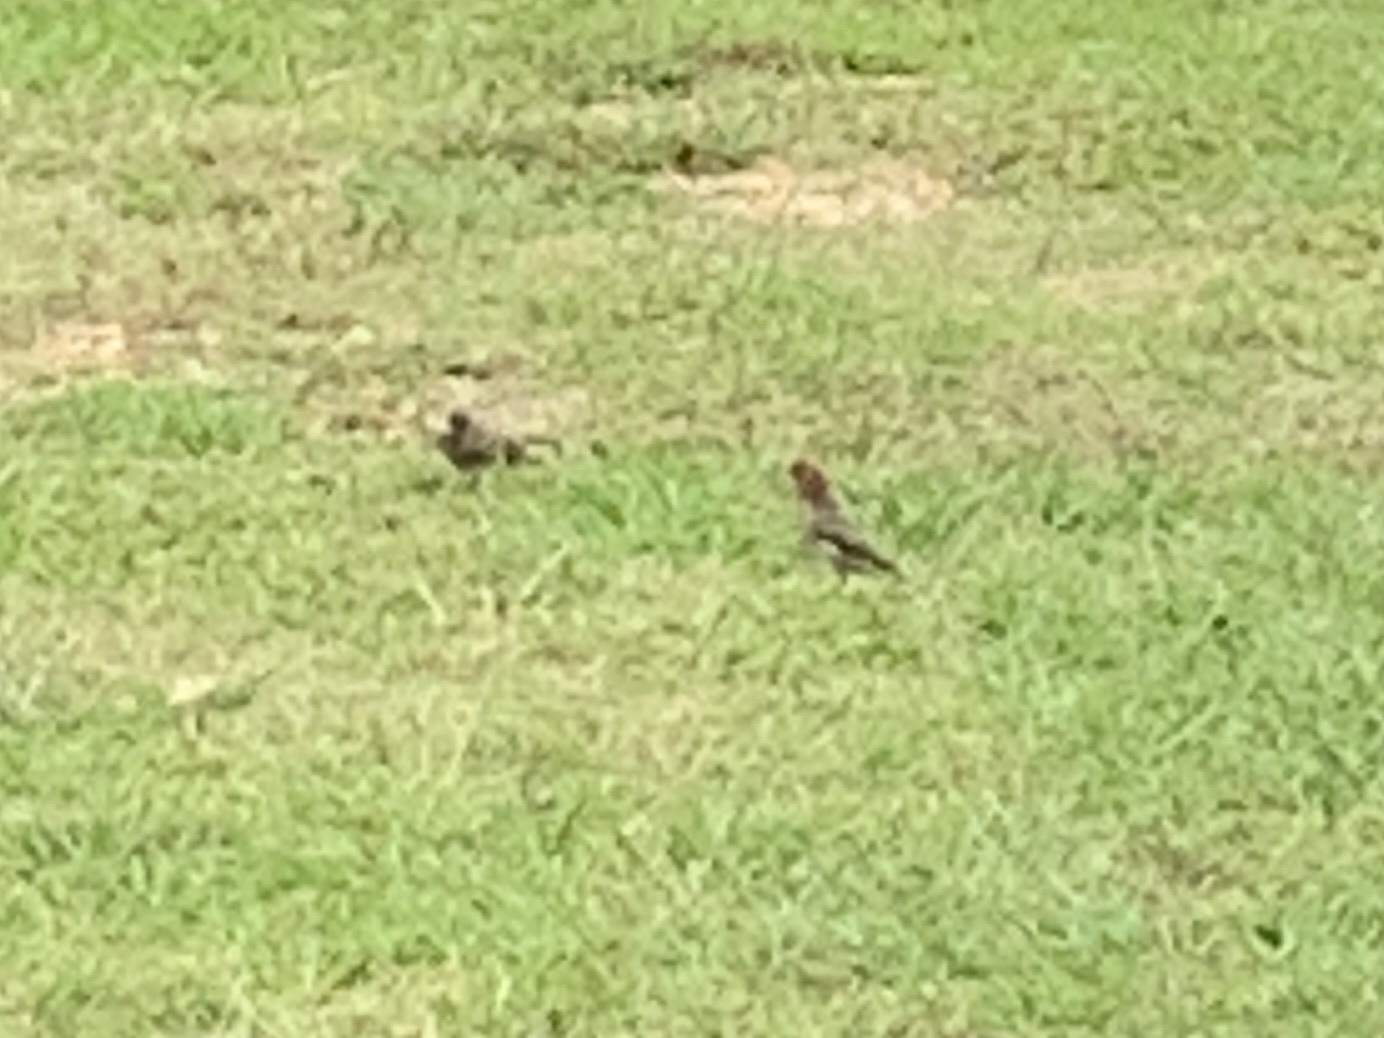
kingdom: Animalia
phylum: Chordata
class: Aves
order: Passeriformes
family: Fringillidae
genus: Haemorhous
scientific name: Haemorhous mexicanus
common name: House finch
